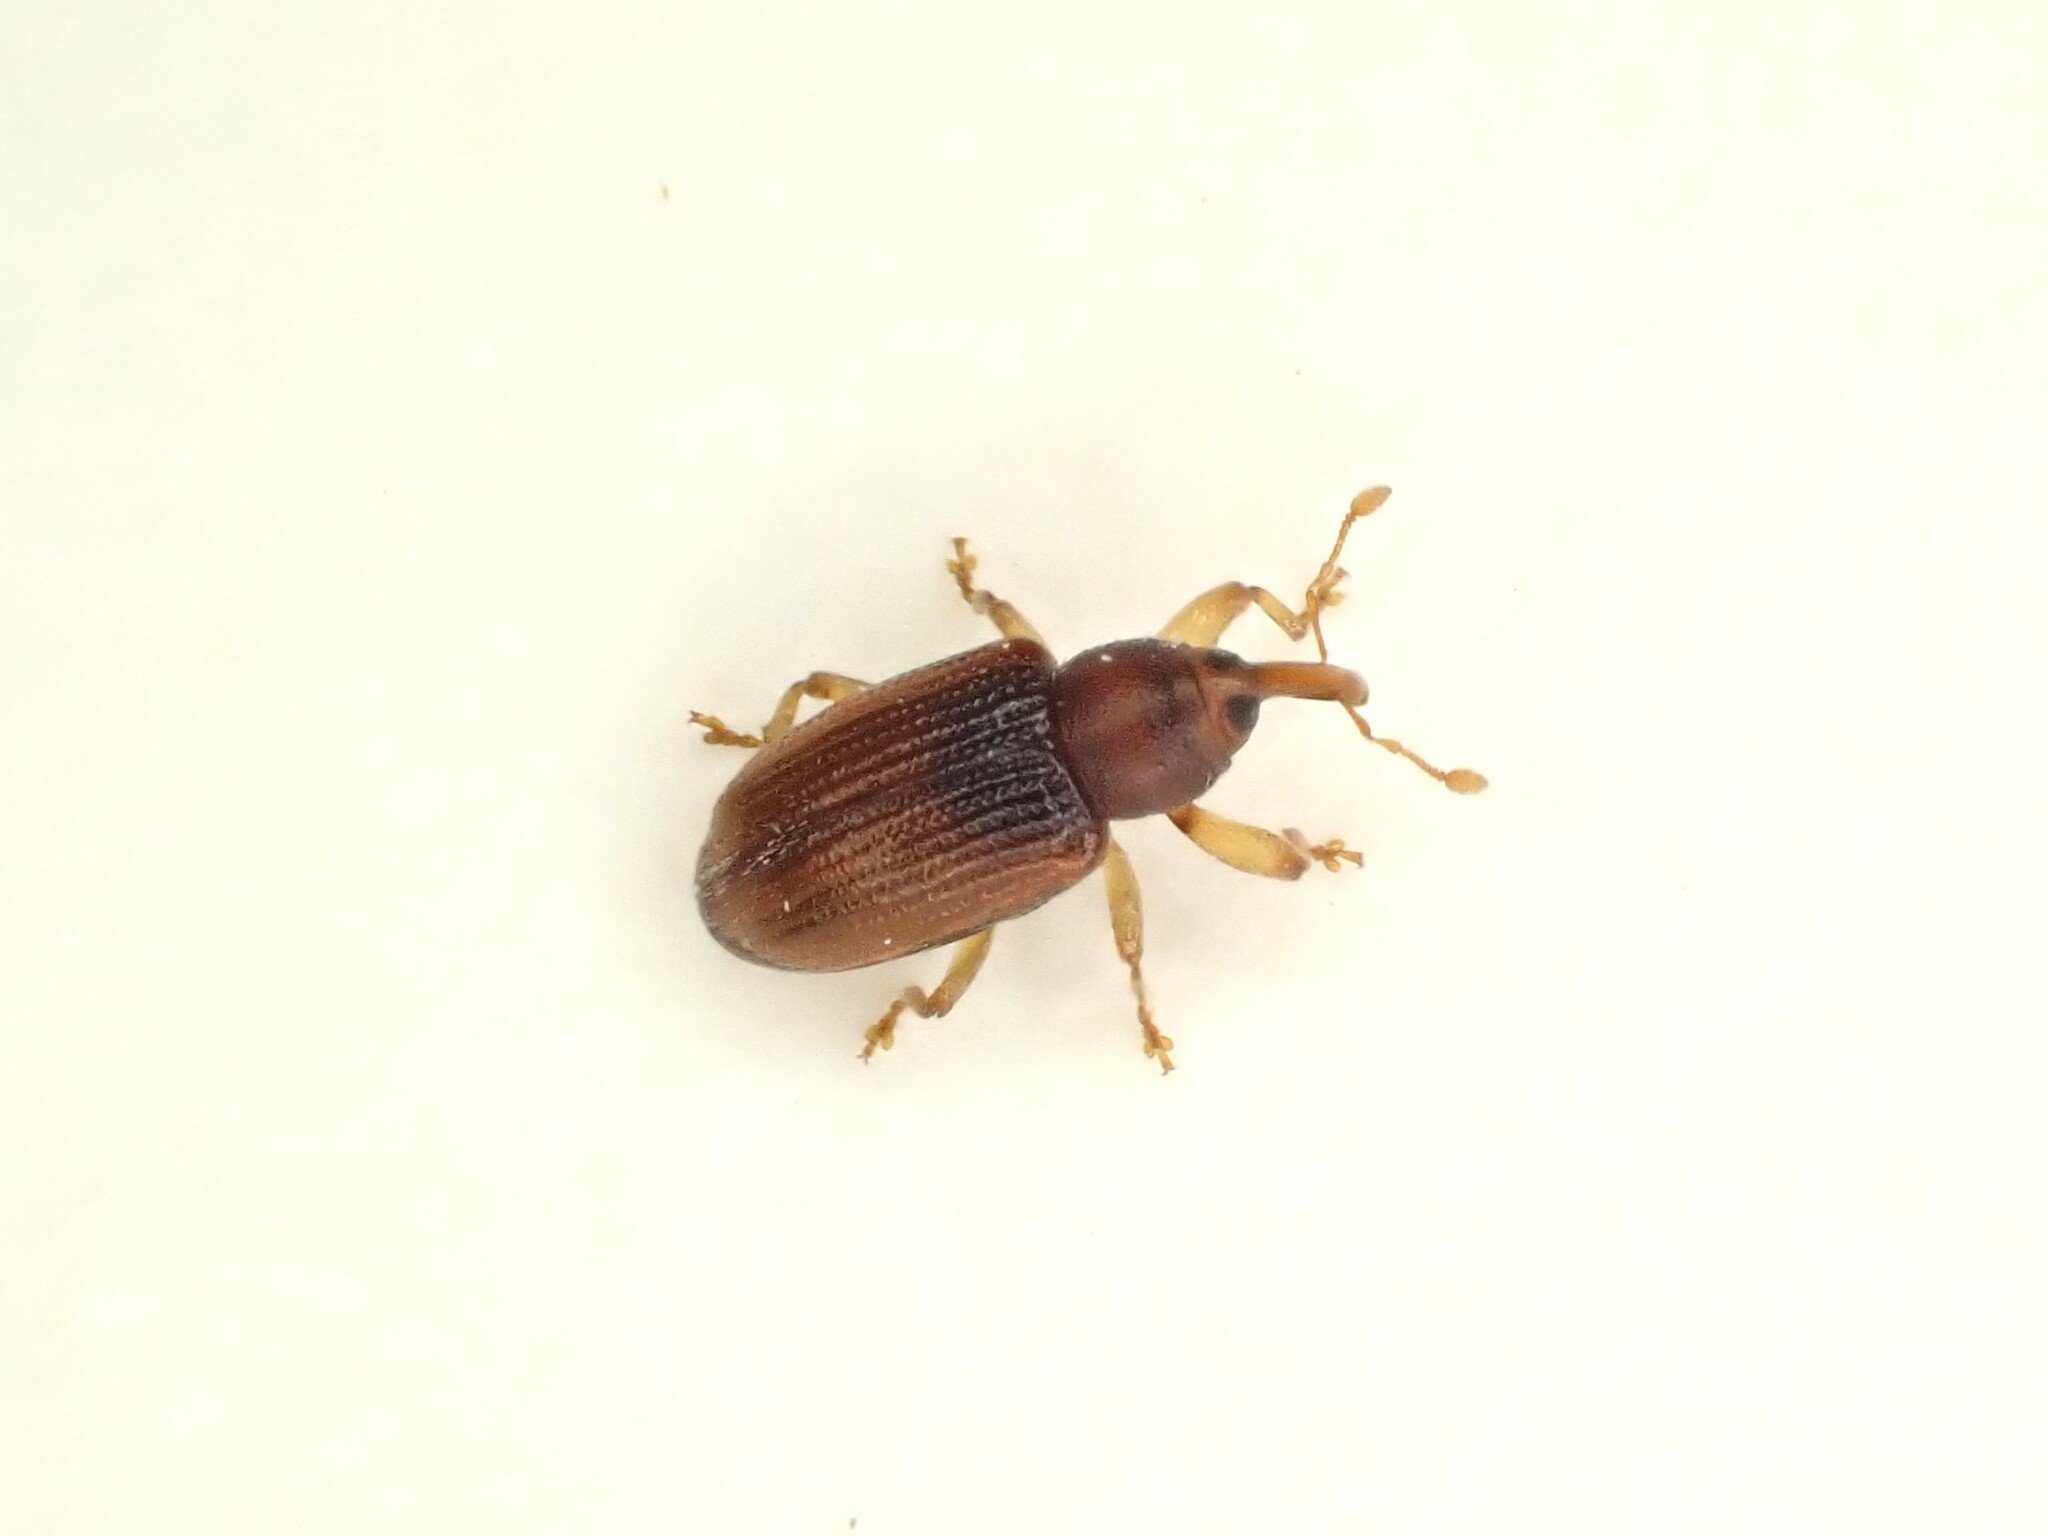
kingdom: Animalia
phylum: Arthropoda
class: Insecta
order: Coleoptera
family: Curculionidae
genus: Aneuma
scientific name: Aneuma
